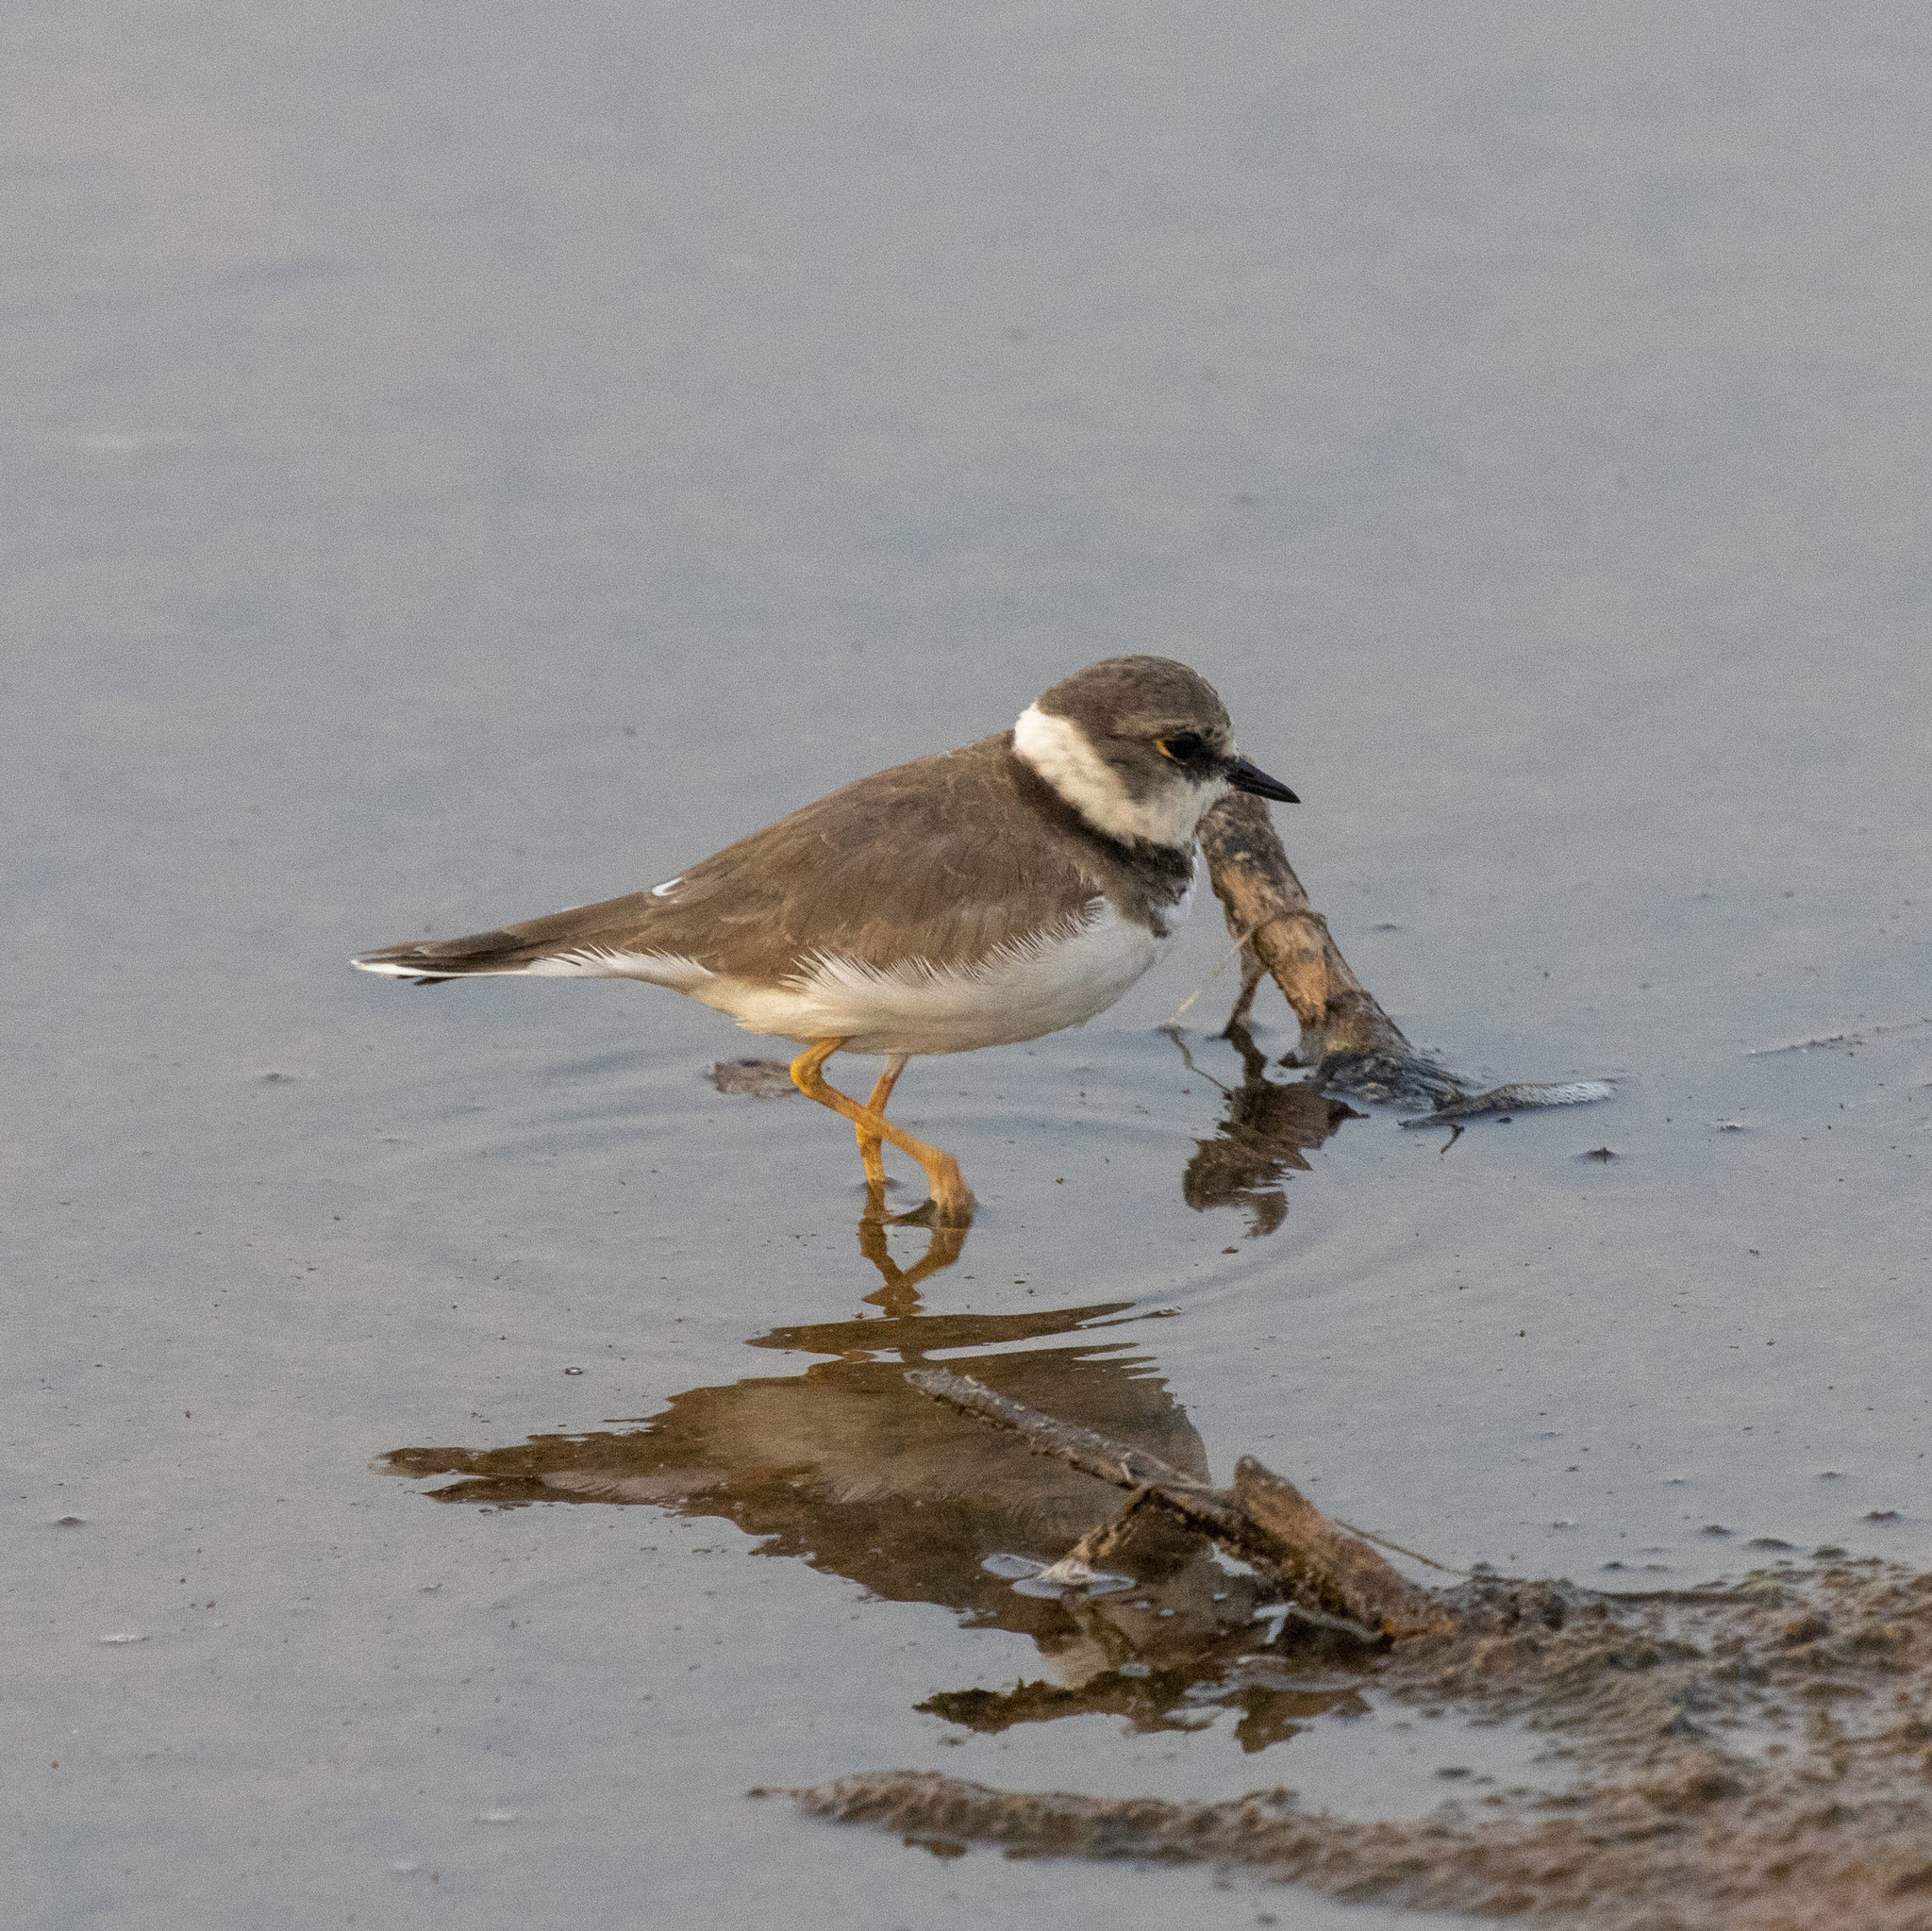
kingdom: Animalia
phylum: Chordata
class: Aves
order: Charadriiformes
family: Charadriidae
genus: Charadrius
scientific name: Charadrius dubius
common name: Little ringed plover
